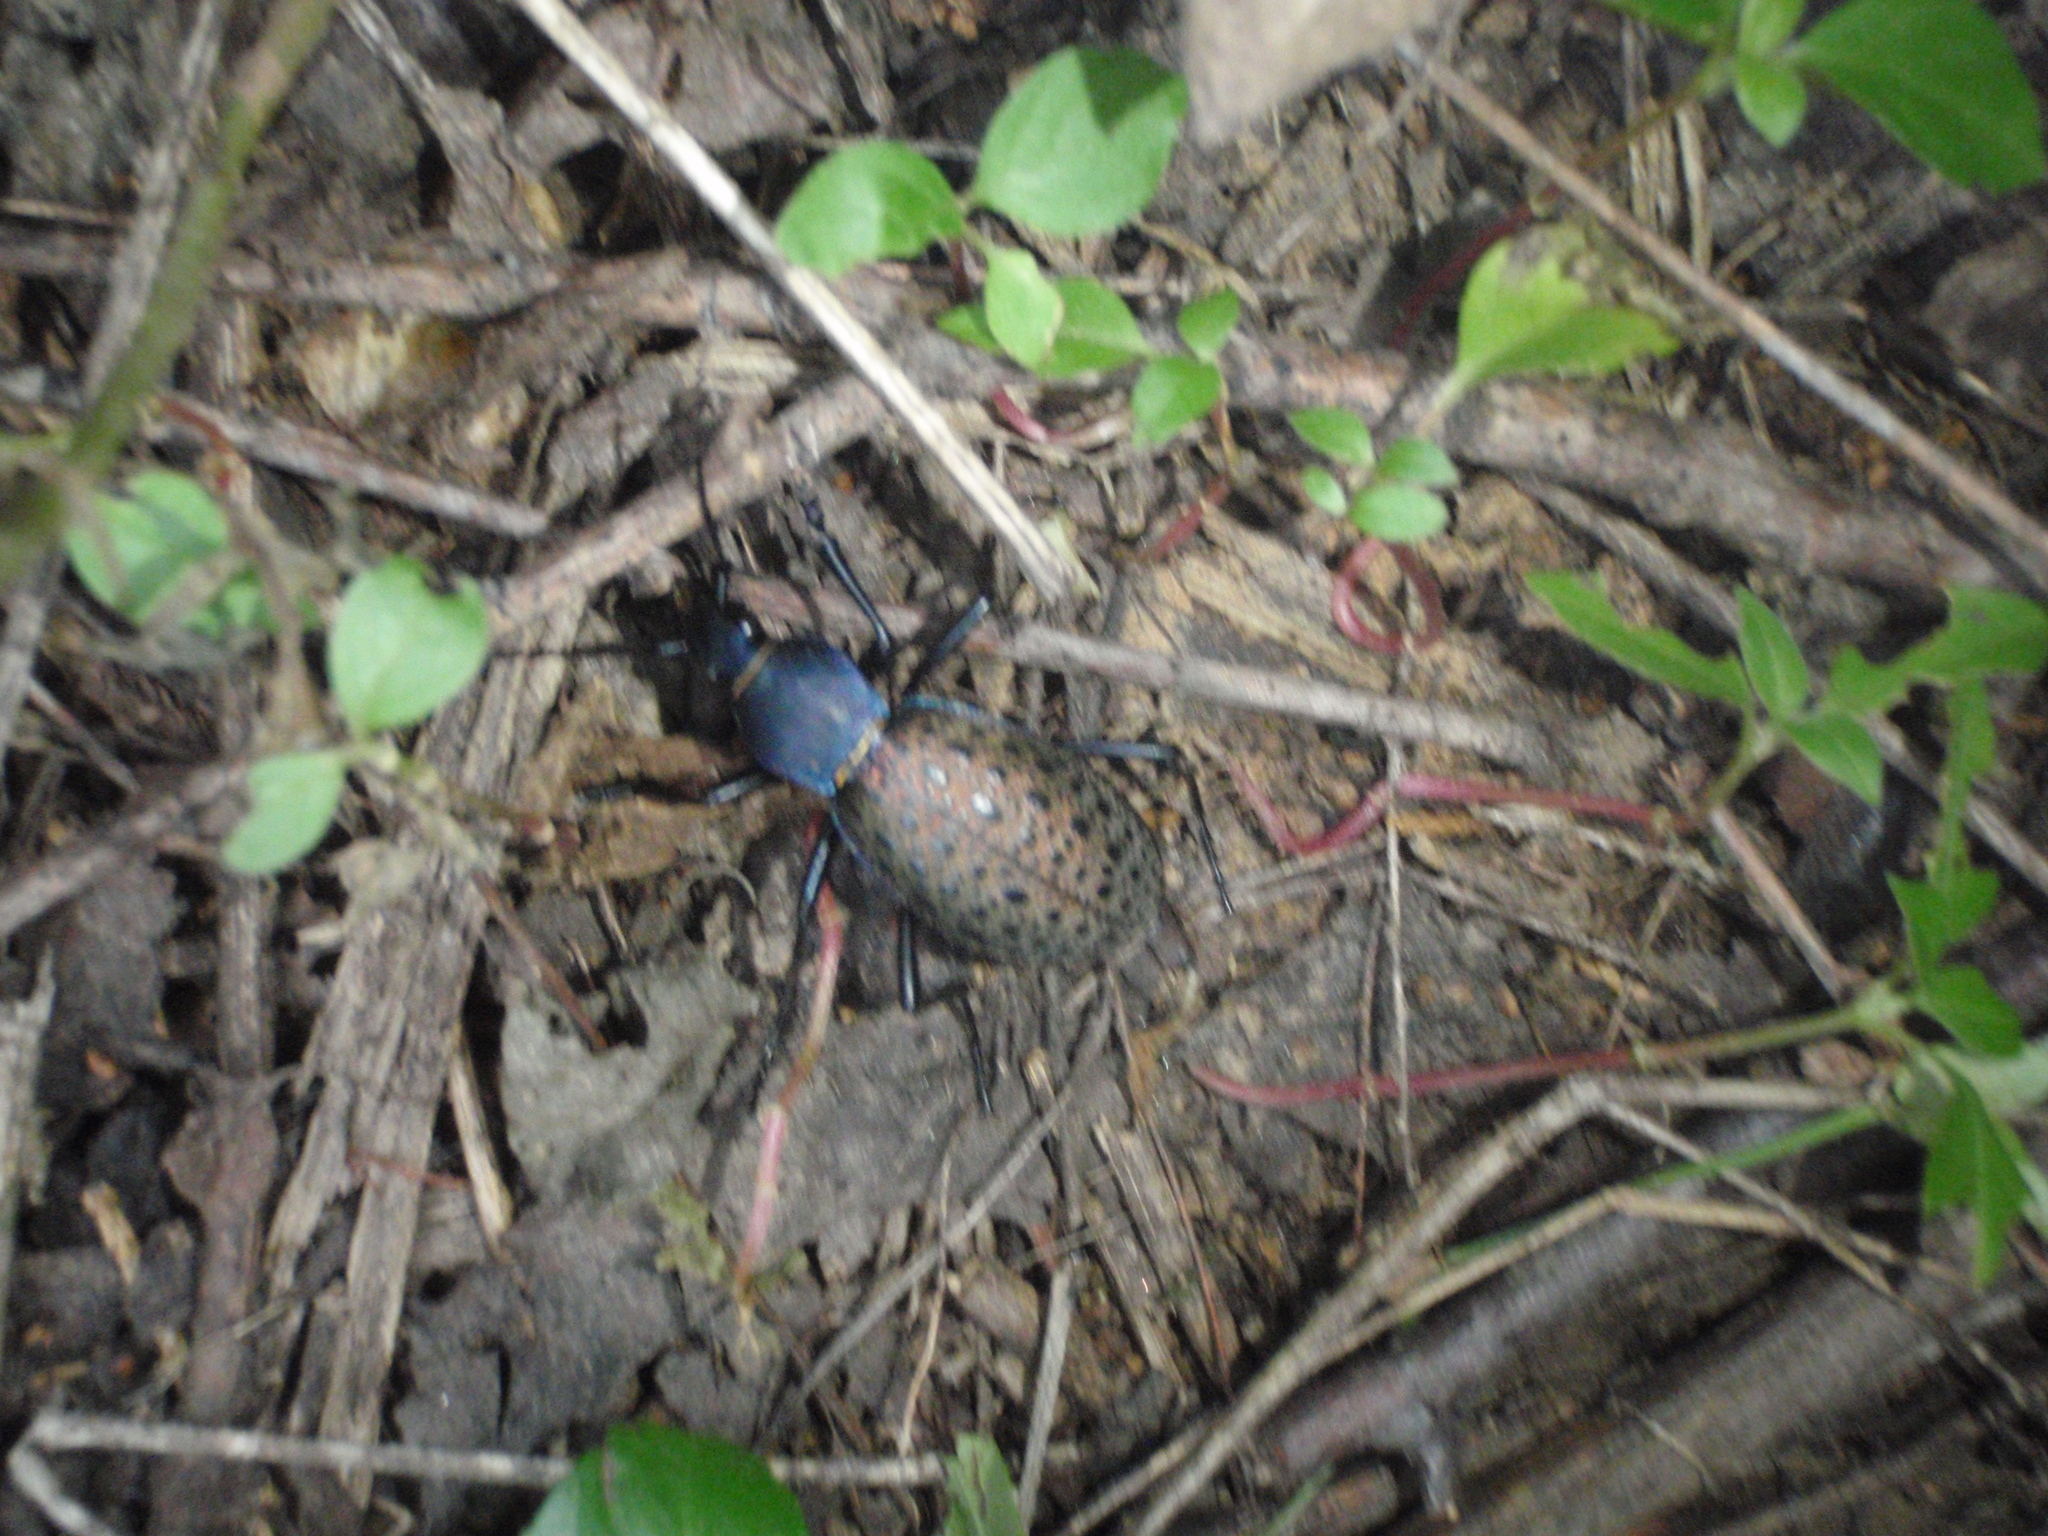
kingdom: Animalia
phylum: Arthropoda
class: Insecta
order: Coleoptera
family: Carabidae
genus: Carabus
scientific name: Carabus formosus
